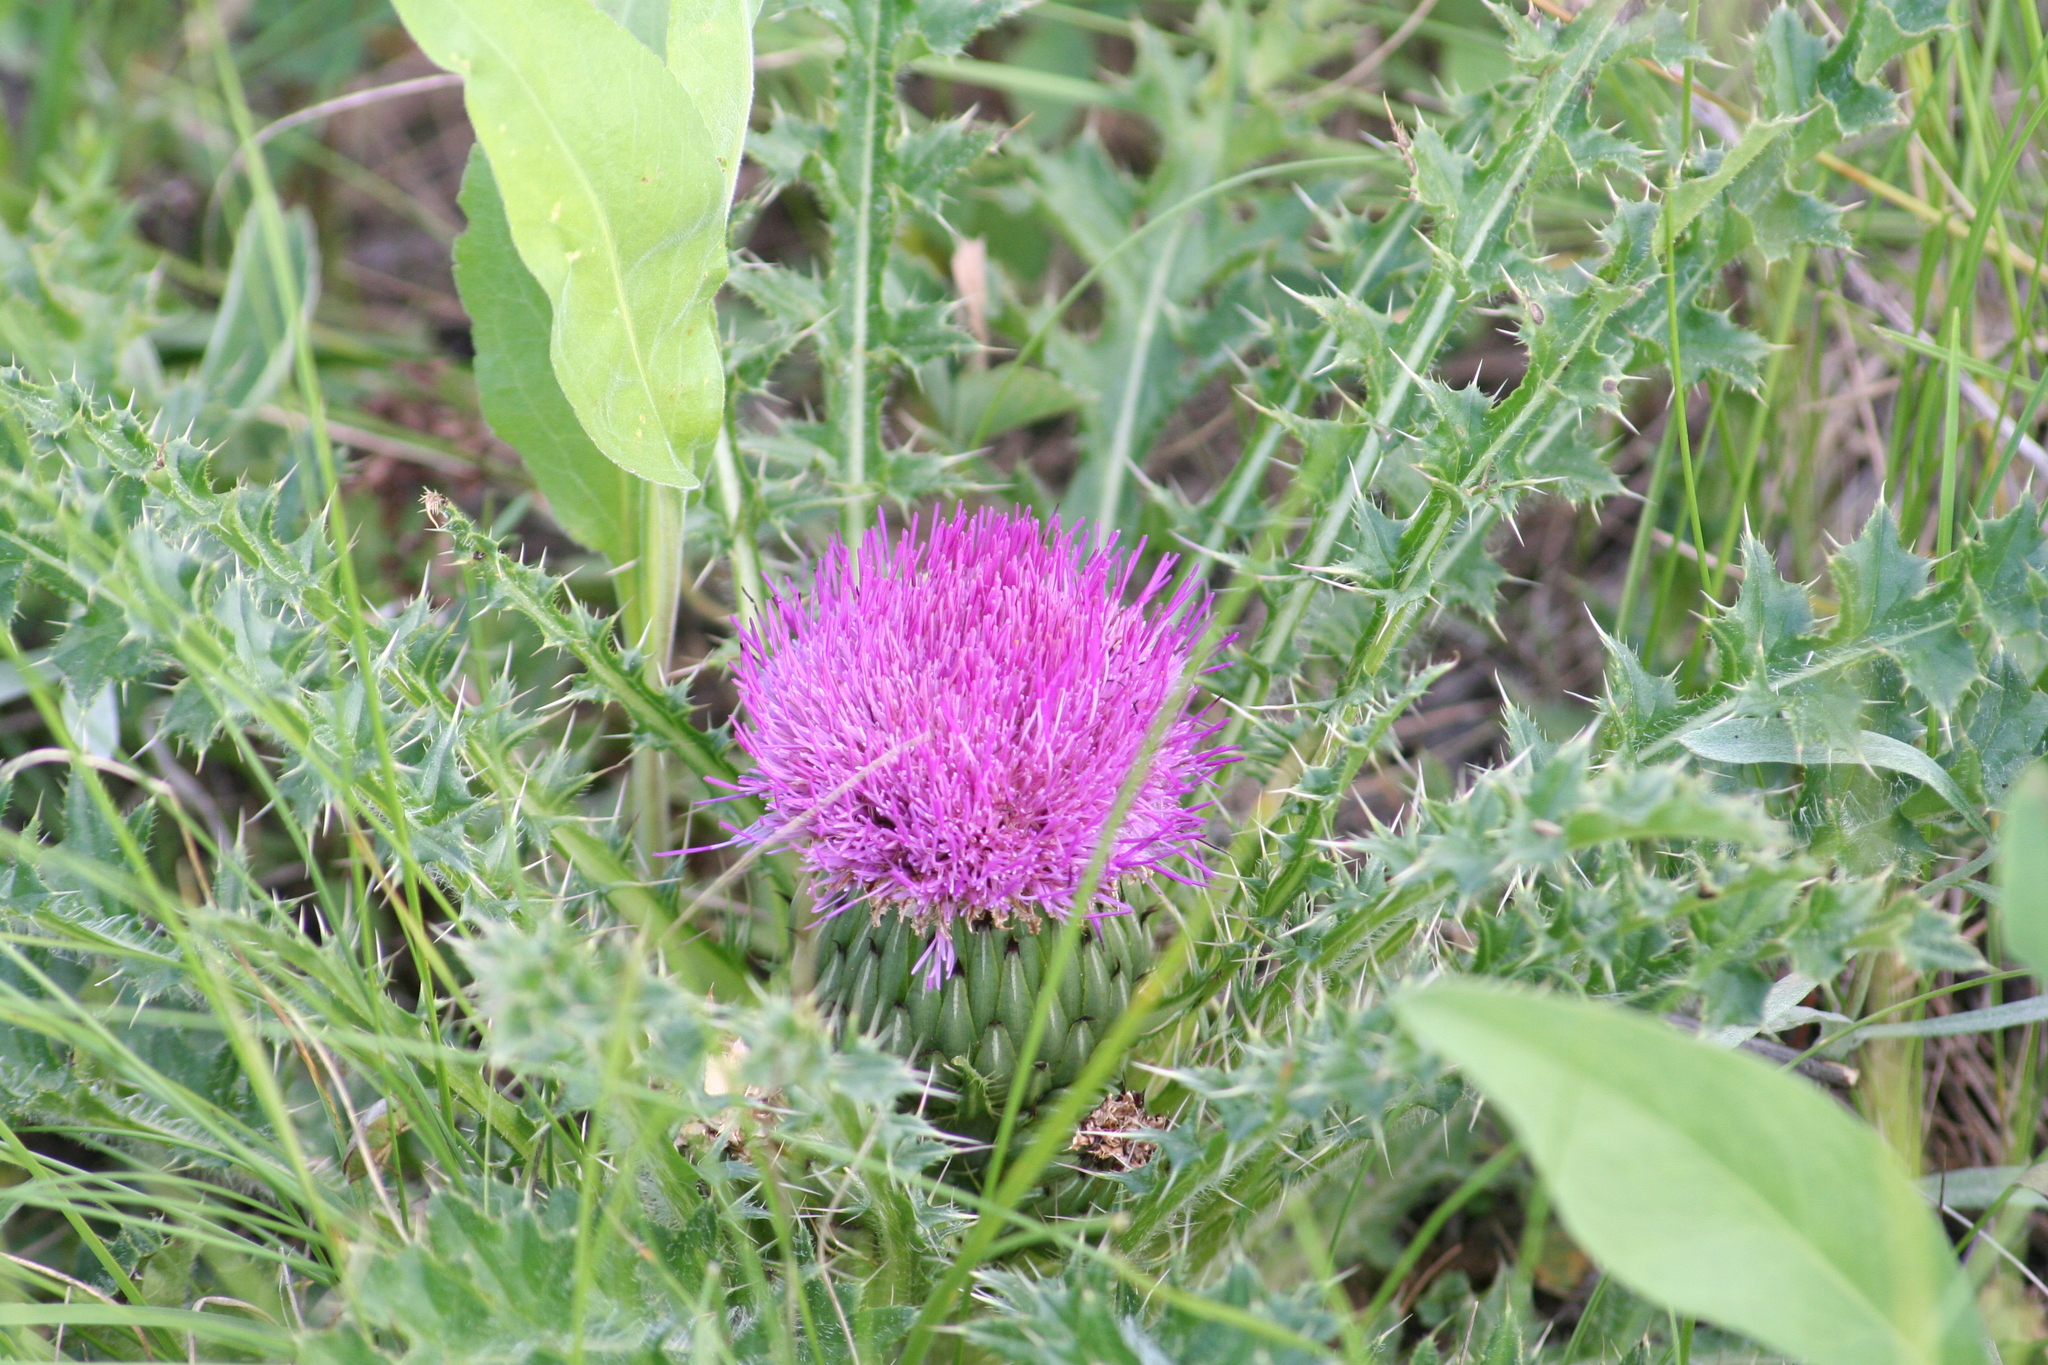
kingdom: Plantae
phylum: Tracheophyta
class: Magnoliopsida
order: Asterales
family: Asteraceae
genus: Cirsium
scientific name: Cirsium drummondii
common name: Drummond's thistle
